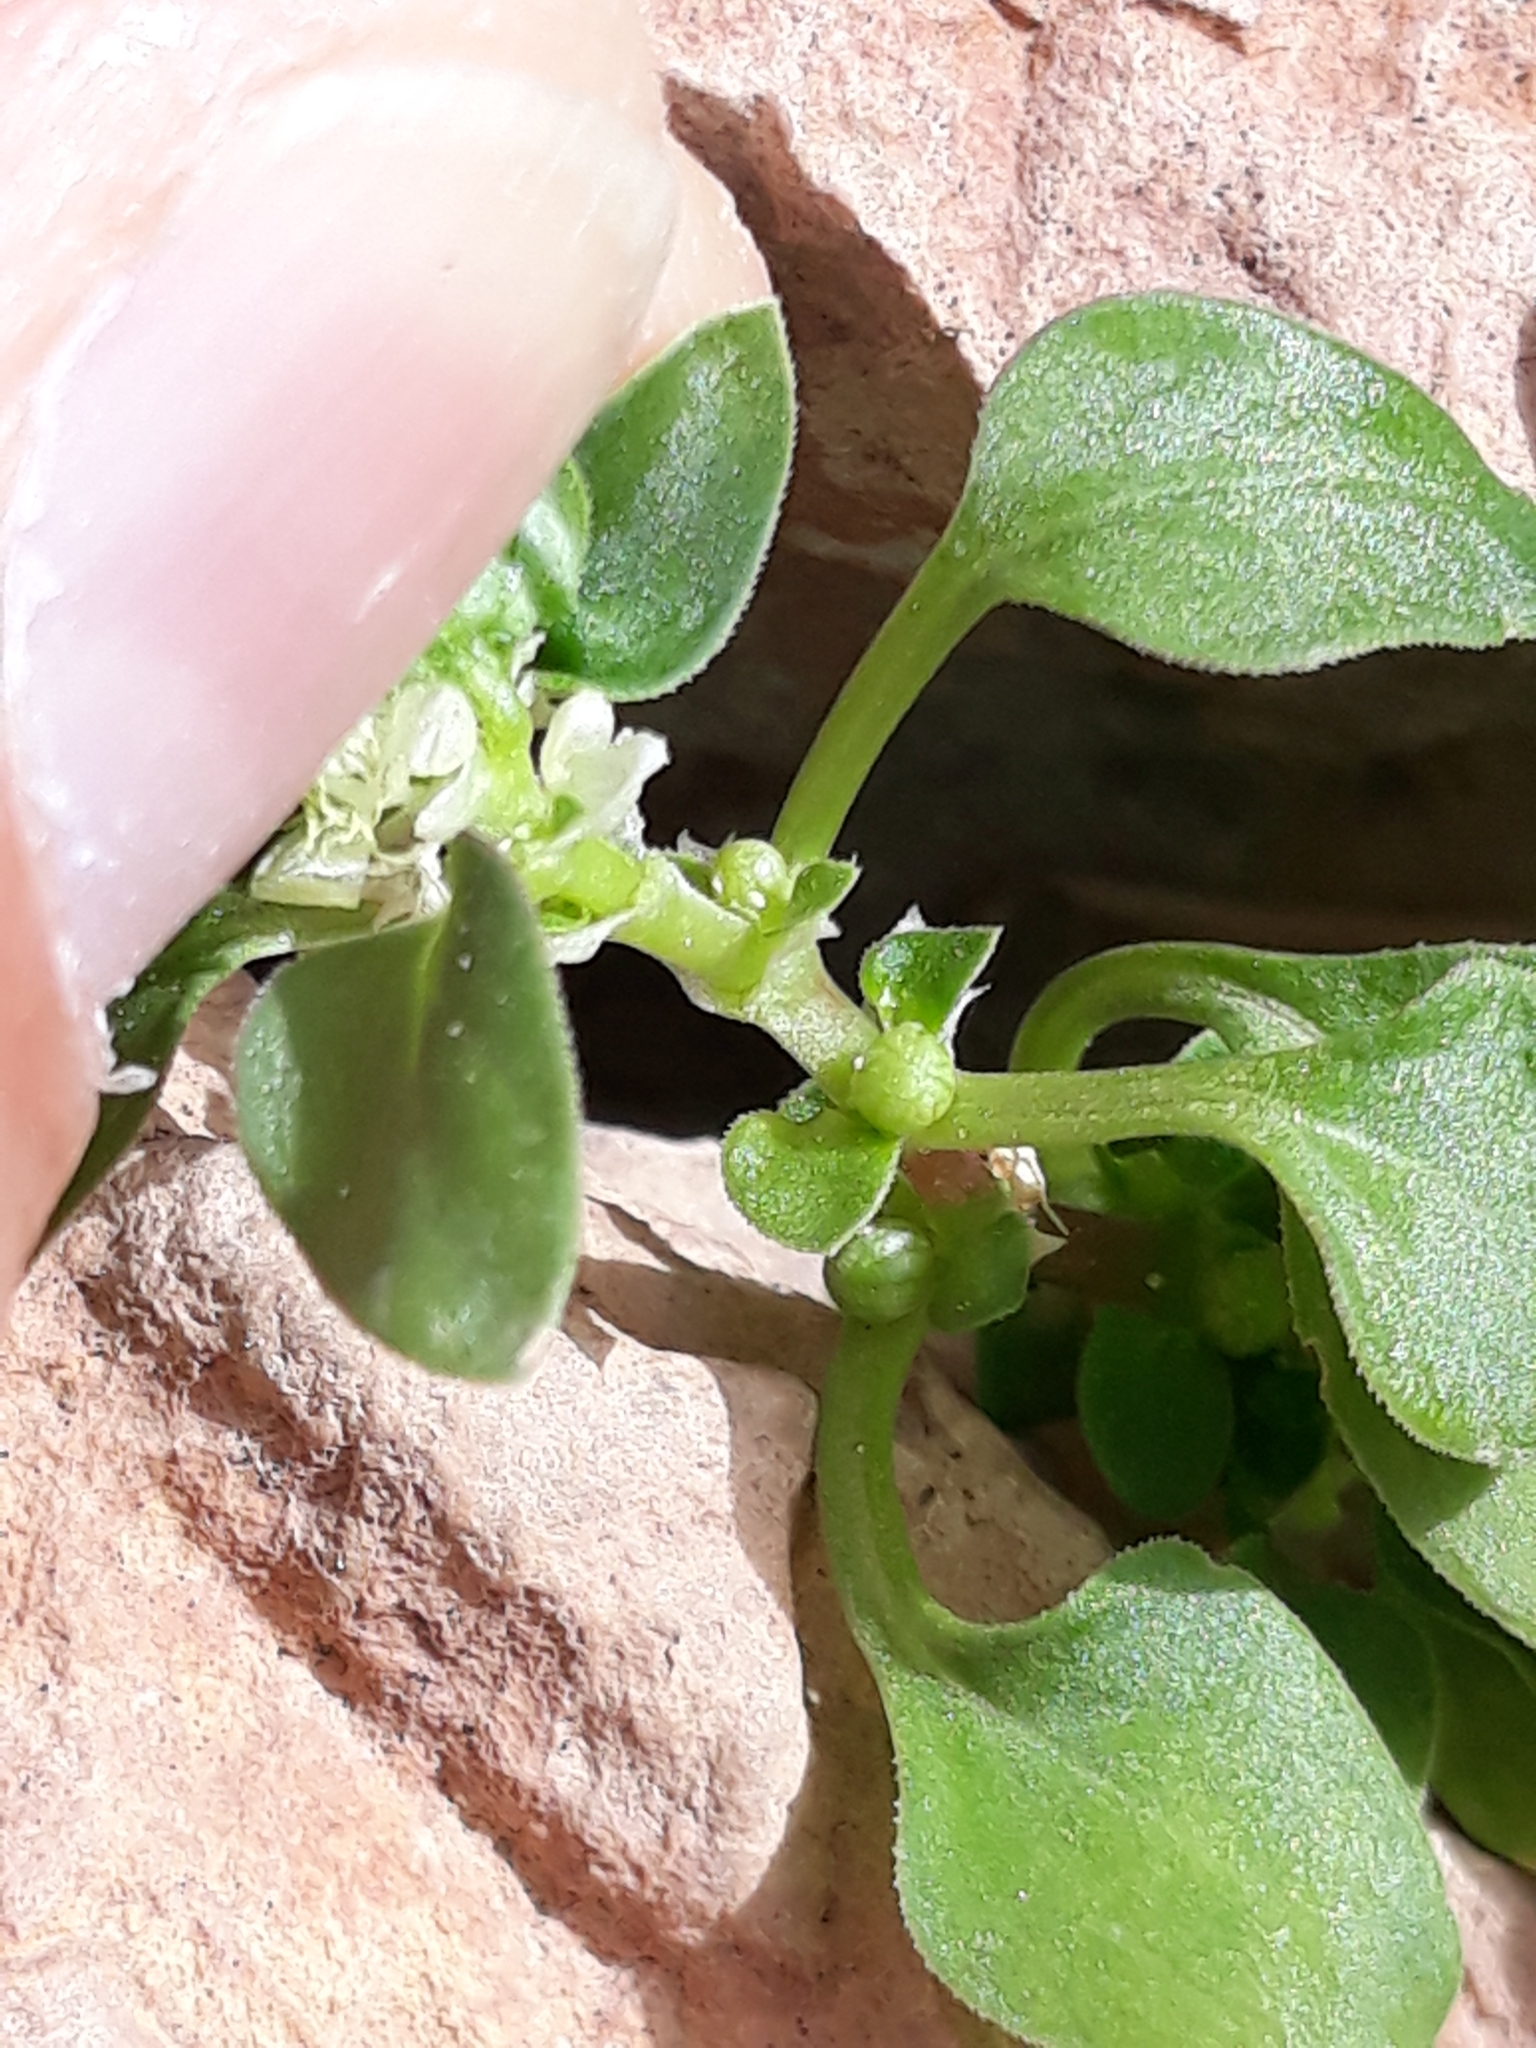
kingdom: Plantae
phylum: Tracheophyta
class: Magnoliopsida
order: Gentianales
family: Rubiaceae
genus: Theligonum
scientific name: Theligonum cynocrambe
